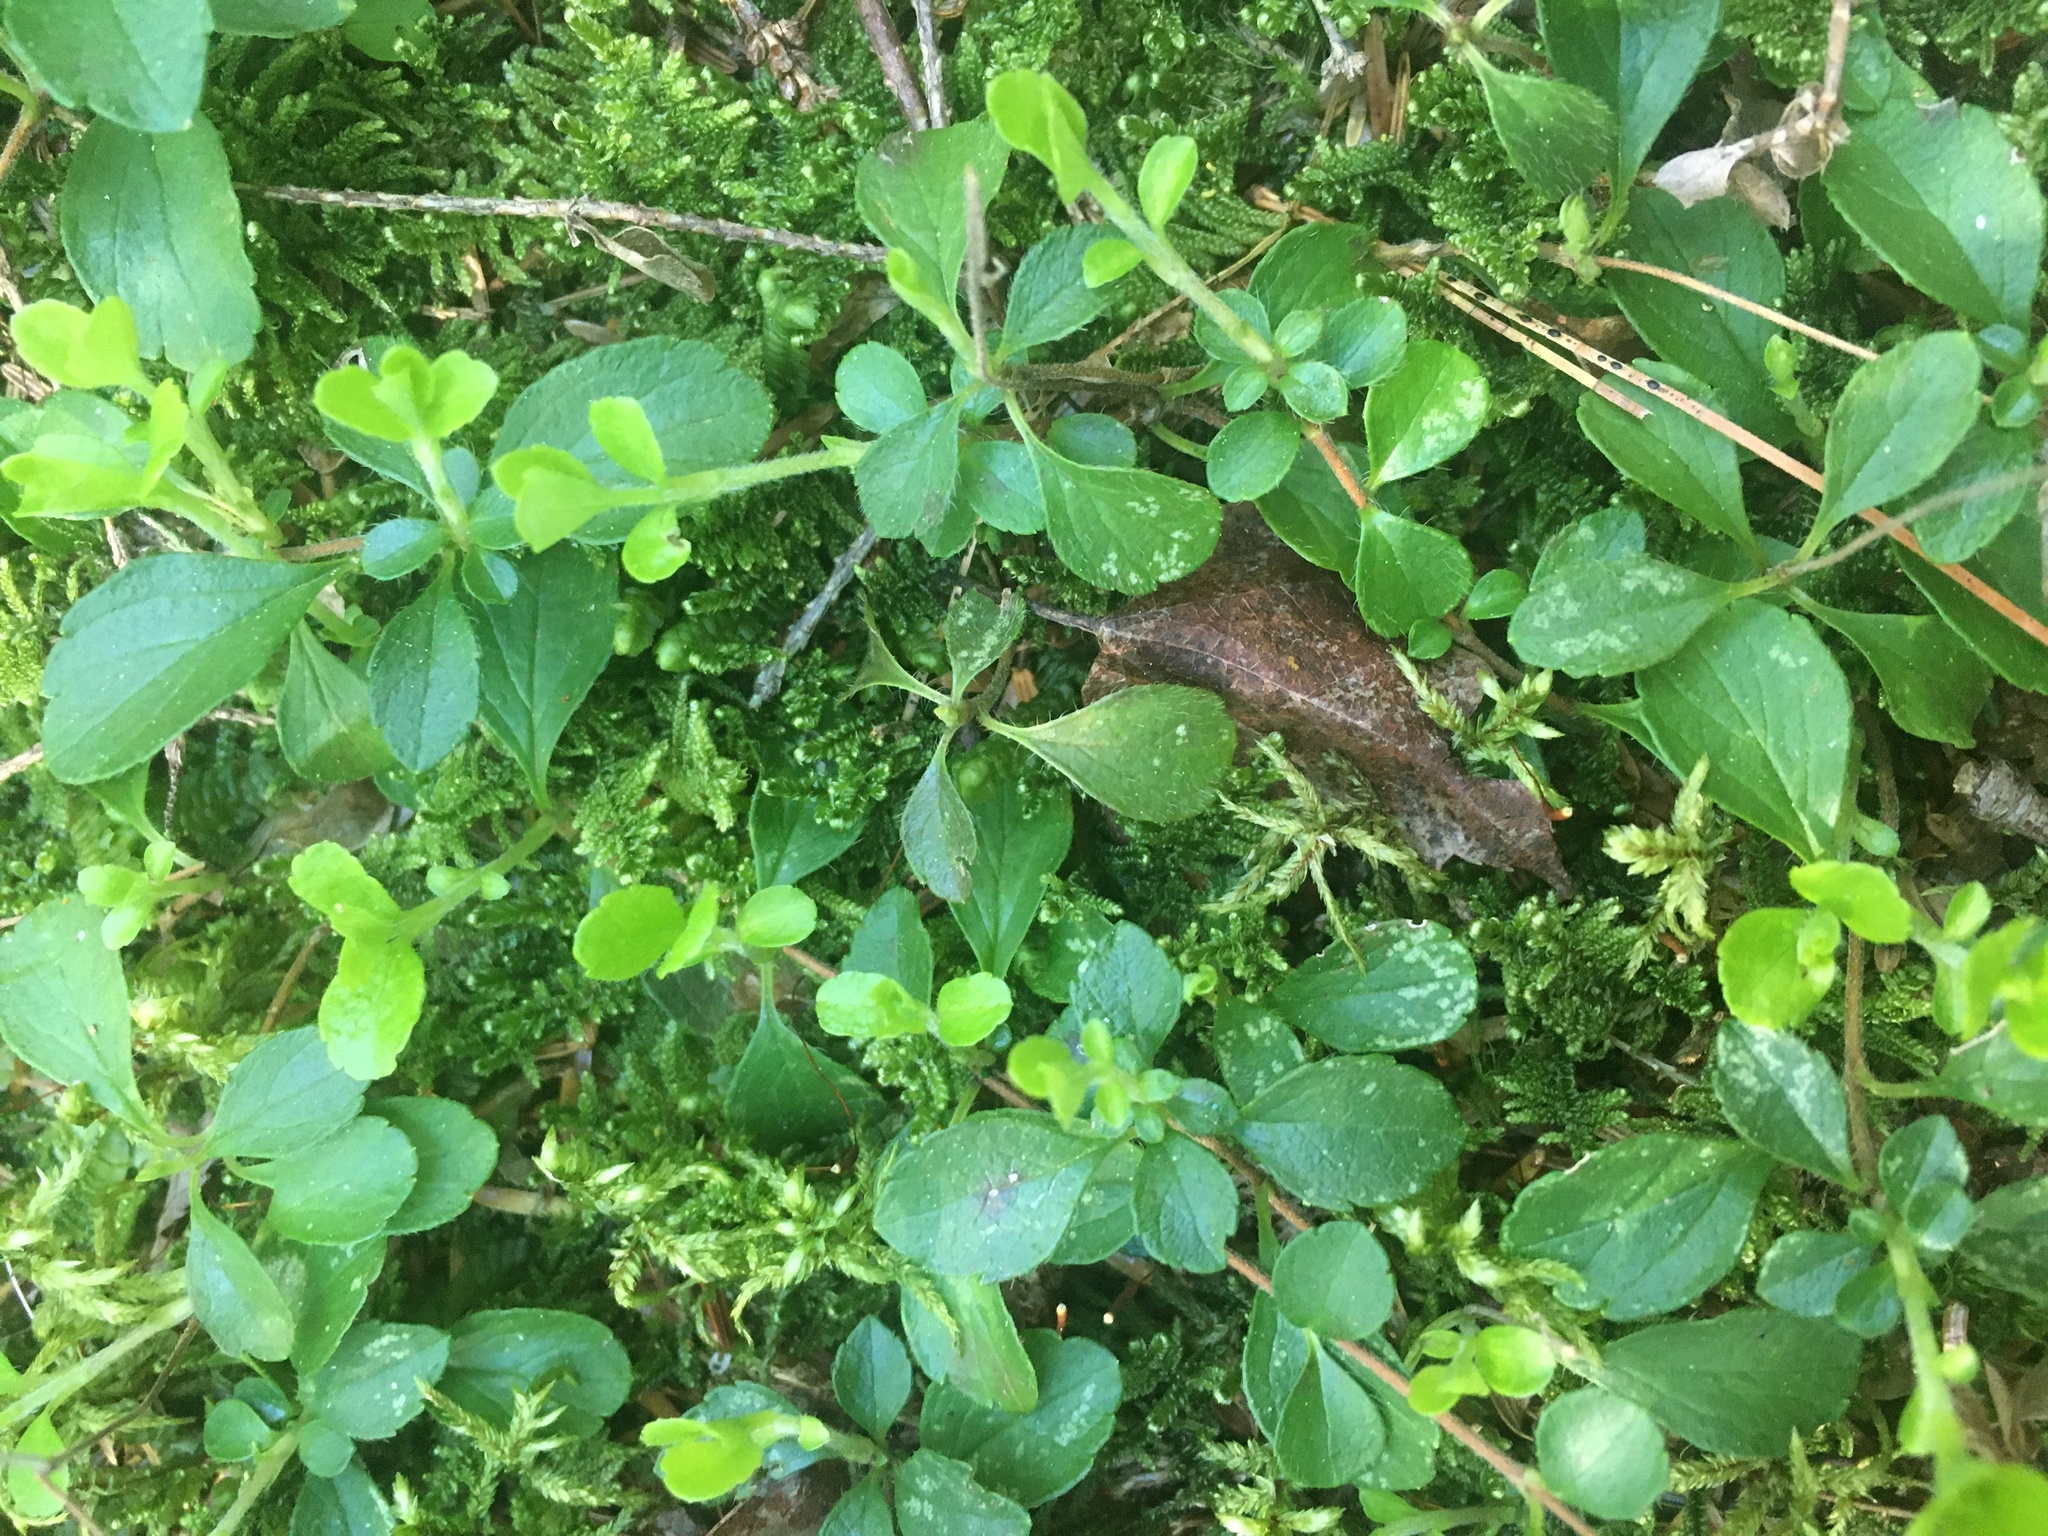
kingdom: Plantae
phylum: Tracheophyta
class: Magnoliopsida
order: Dipsacales
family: Caprifoliaceae
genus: Linnaea
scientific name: Linnaea borealis
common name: Twinflower
